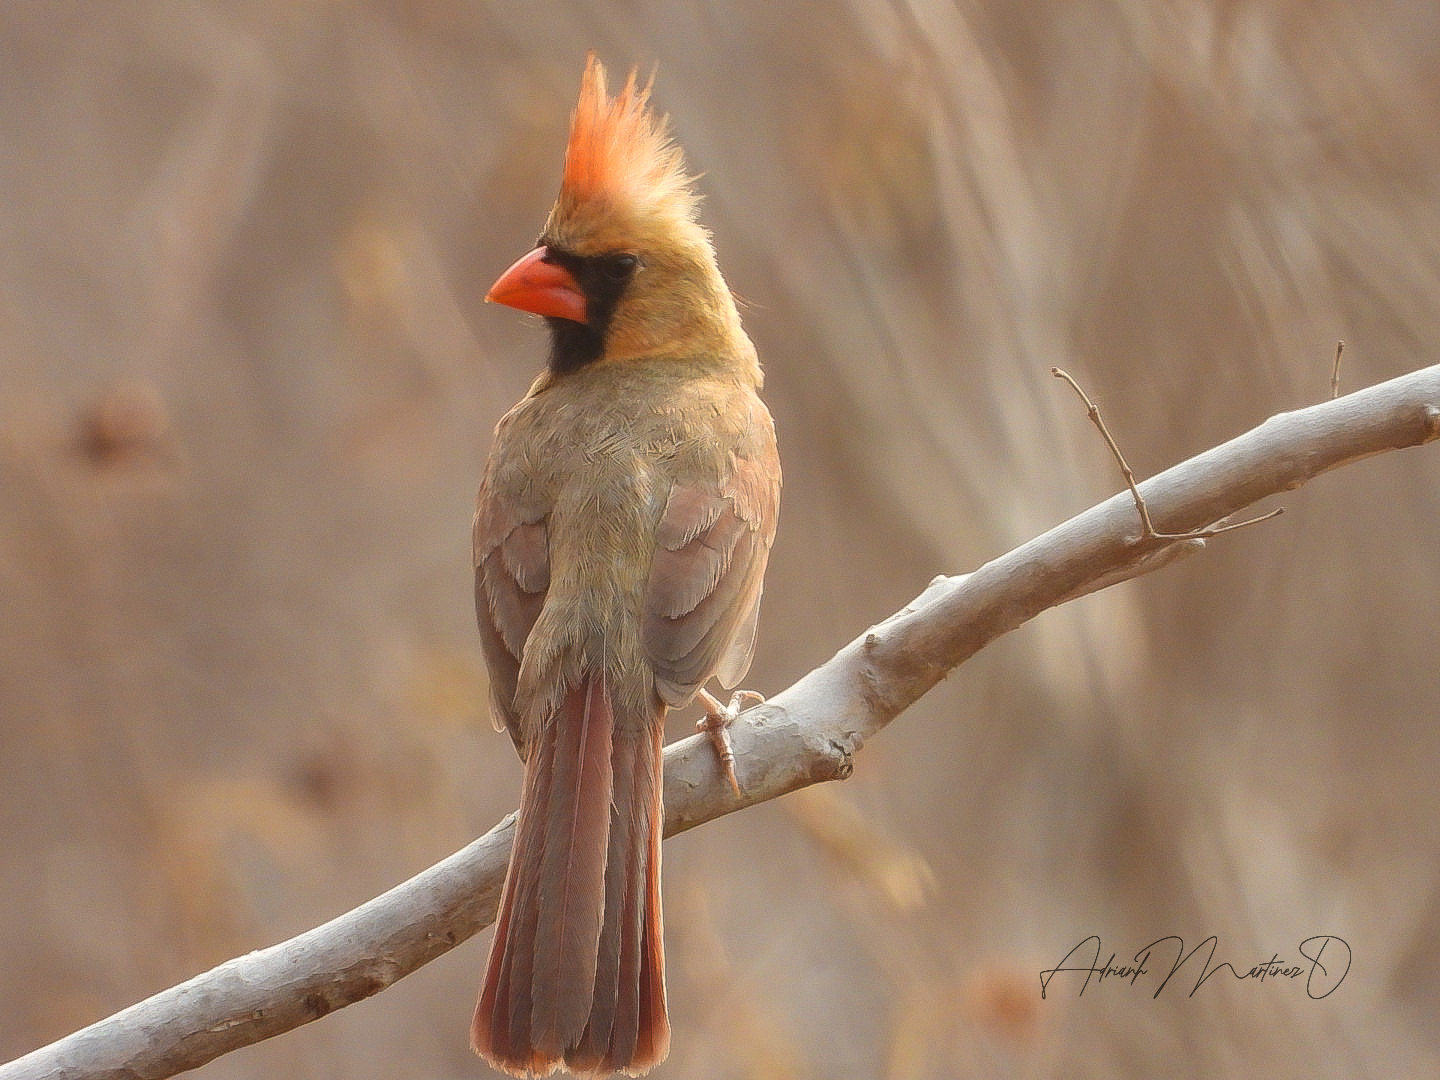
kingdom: Animalia
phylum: Chordata
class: Aves
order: Passeriformes
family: Cardinalidae
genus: Cardinalis
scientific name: Cardinalis cardinalis
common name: Northern cardinal
